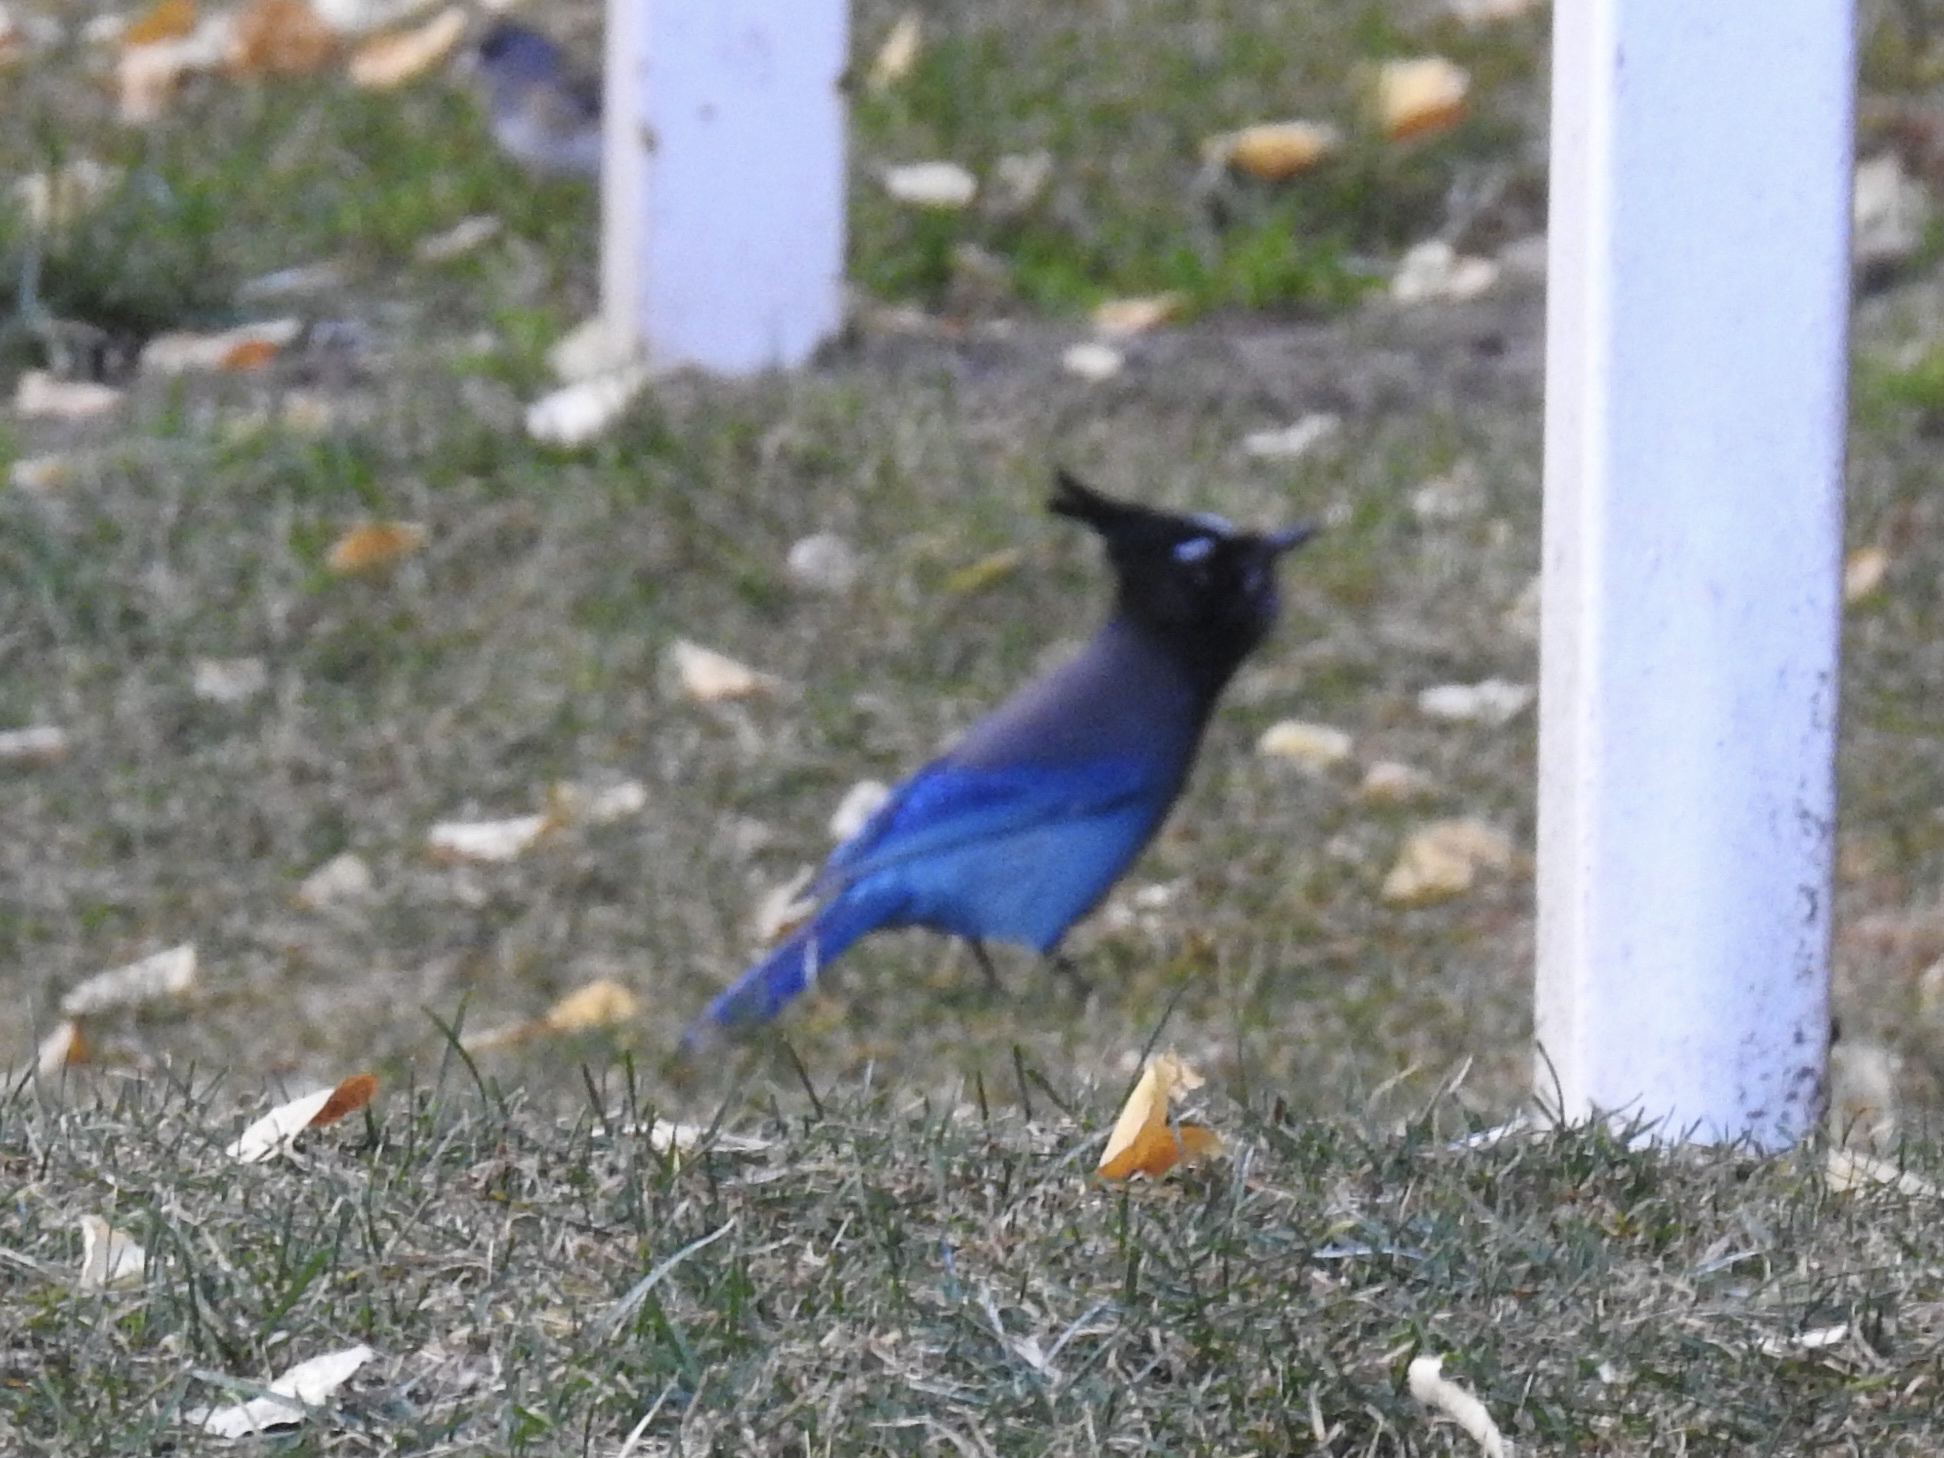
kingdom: Animalia
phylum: Chordata
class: Aves
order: Passeriformes
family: Corvidae
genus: Cyanocitta
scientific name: Cyanocitta stelleri
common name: Steller's jay
